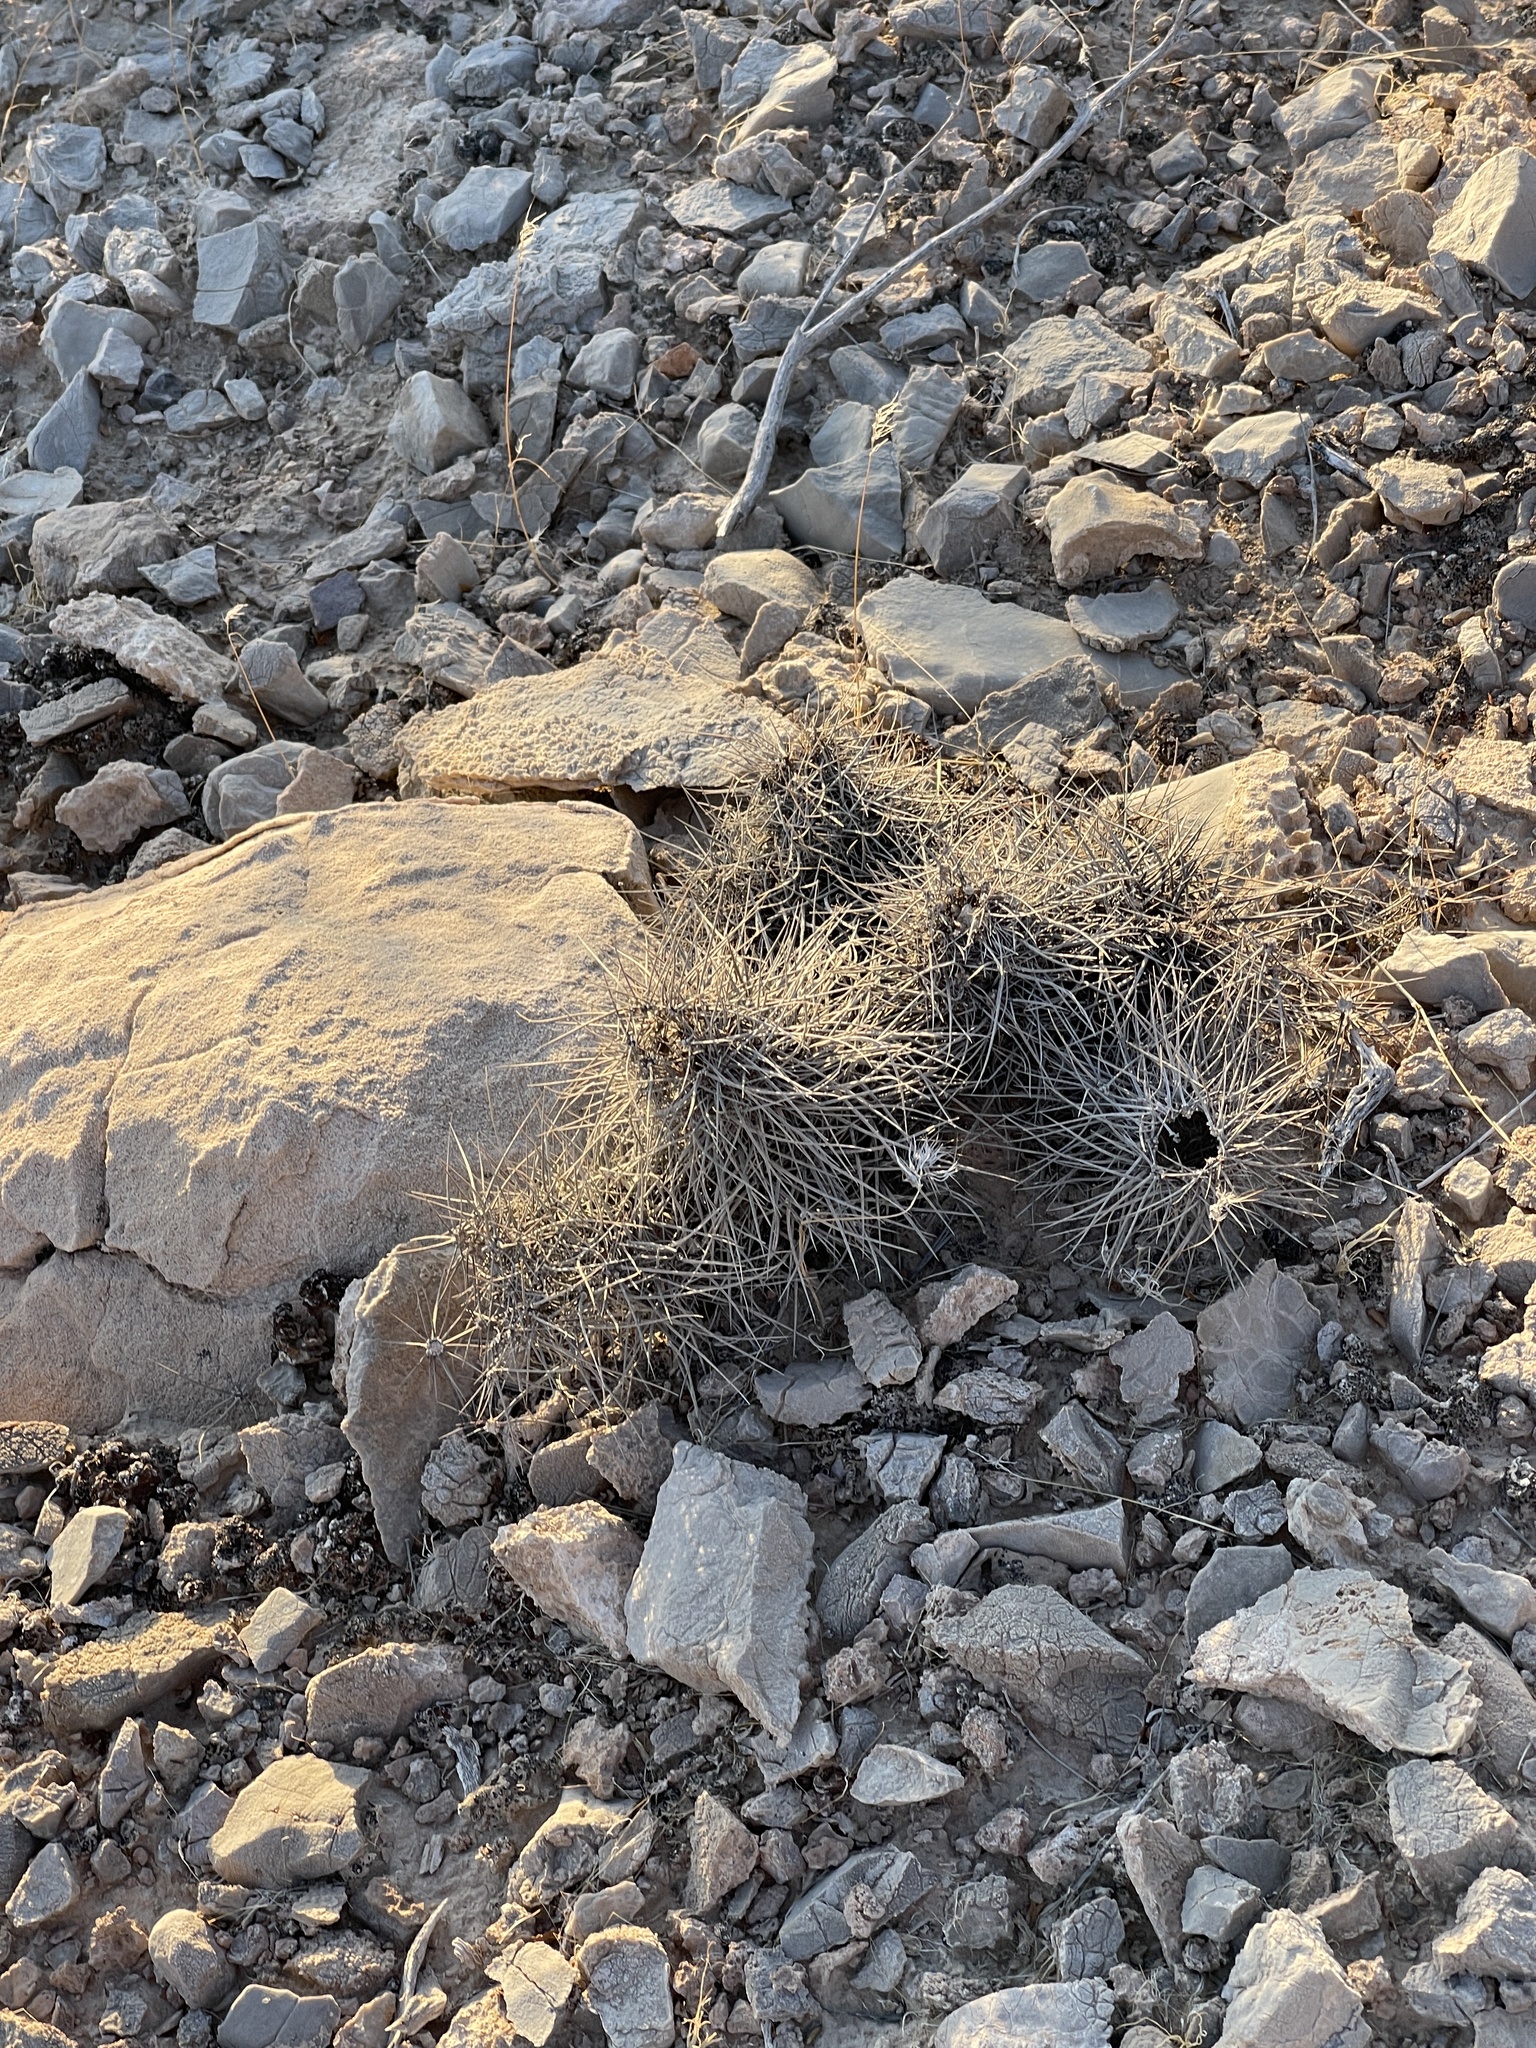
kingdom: Plantae
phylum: Tracheophyta
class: Magnoliopsida
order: Caryophyllales
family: Cactaceae
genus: Echinocereus
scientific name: Echinocereus engelmannii
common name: Engelmann's hedgehog cactus
